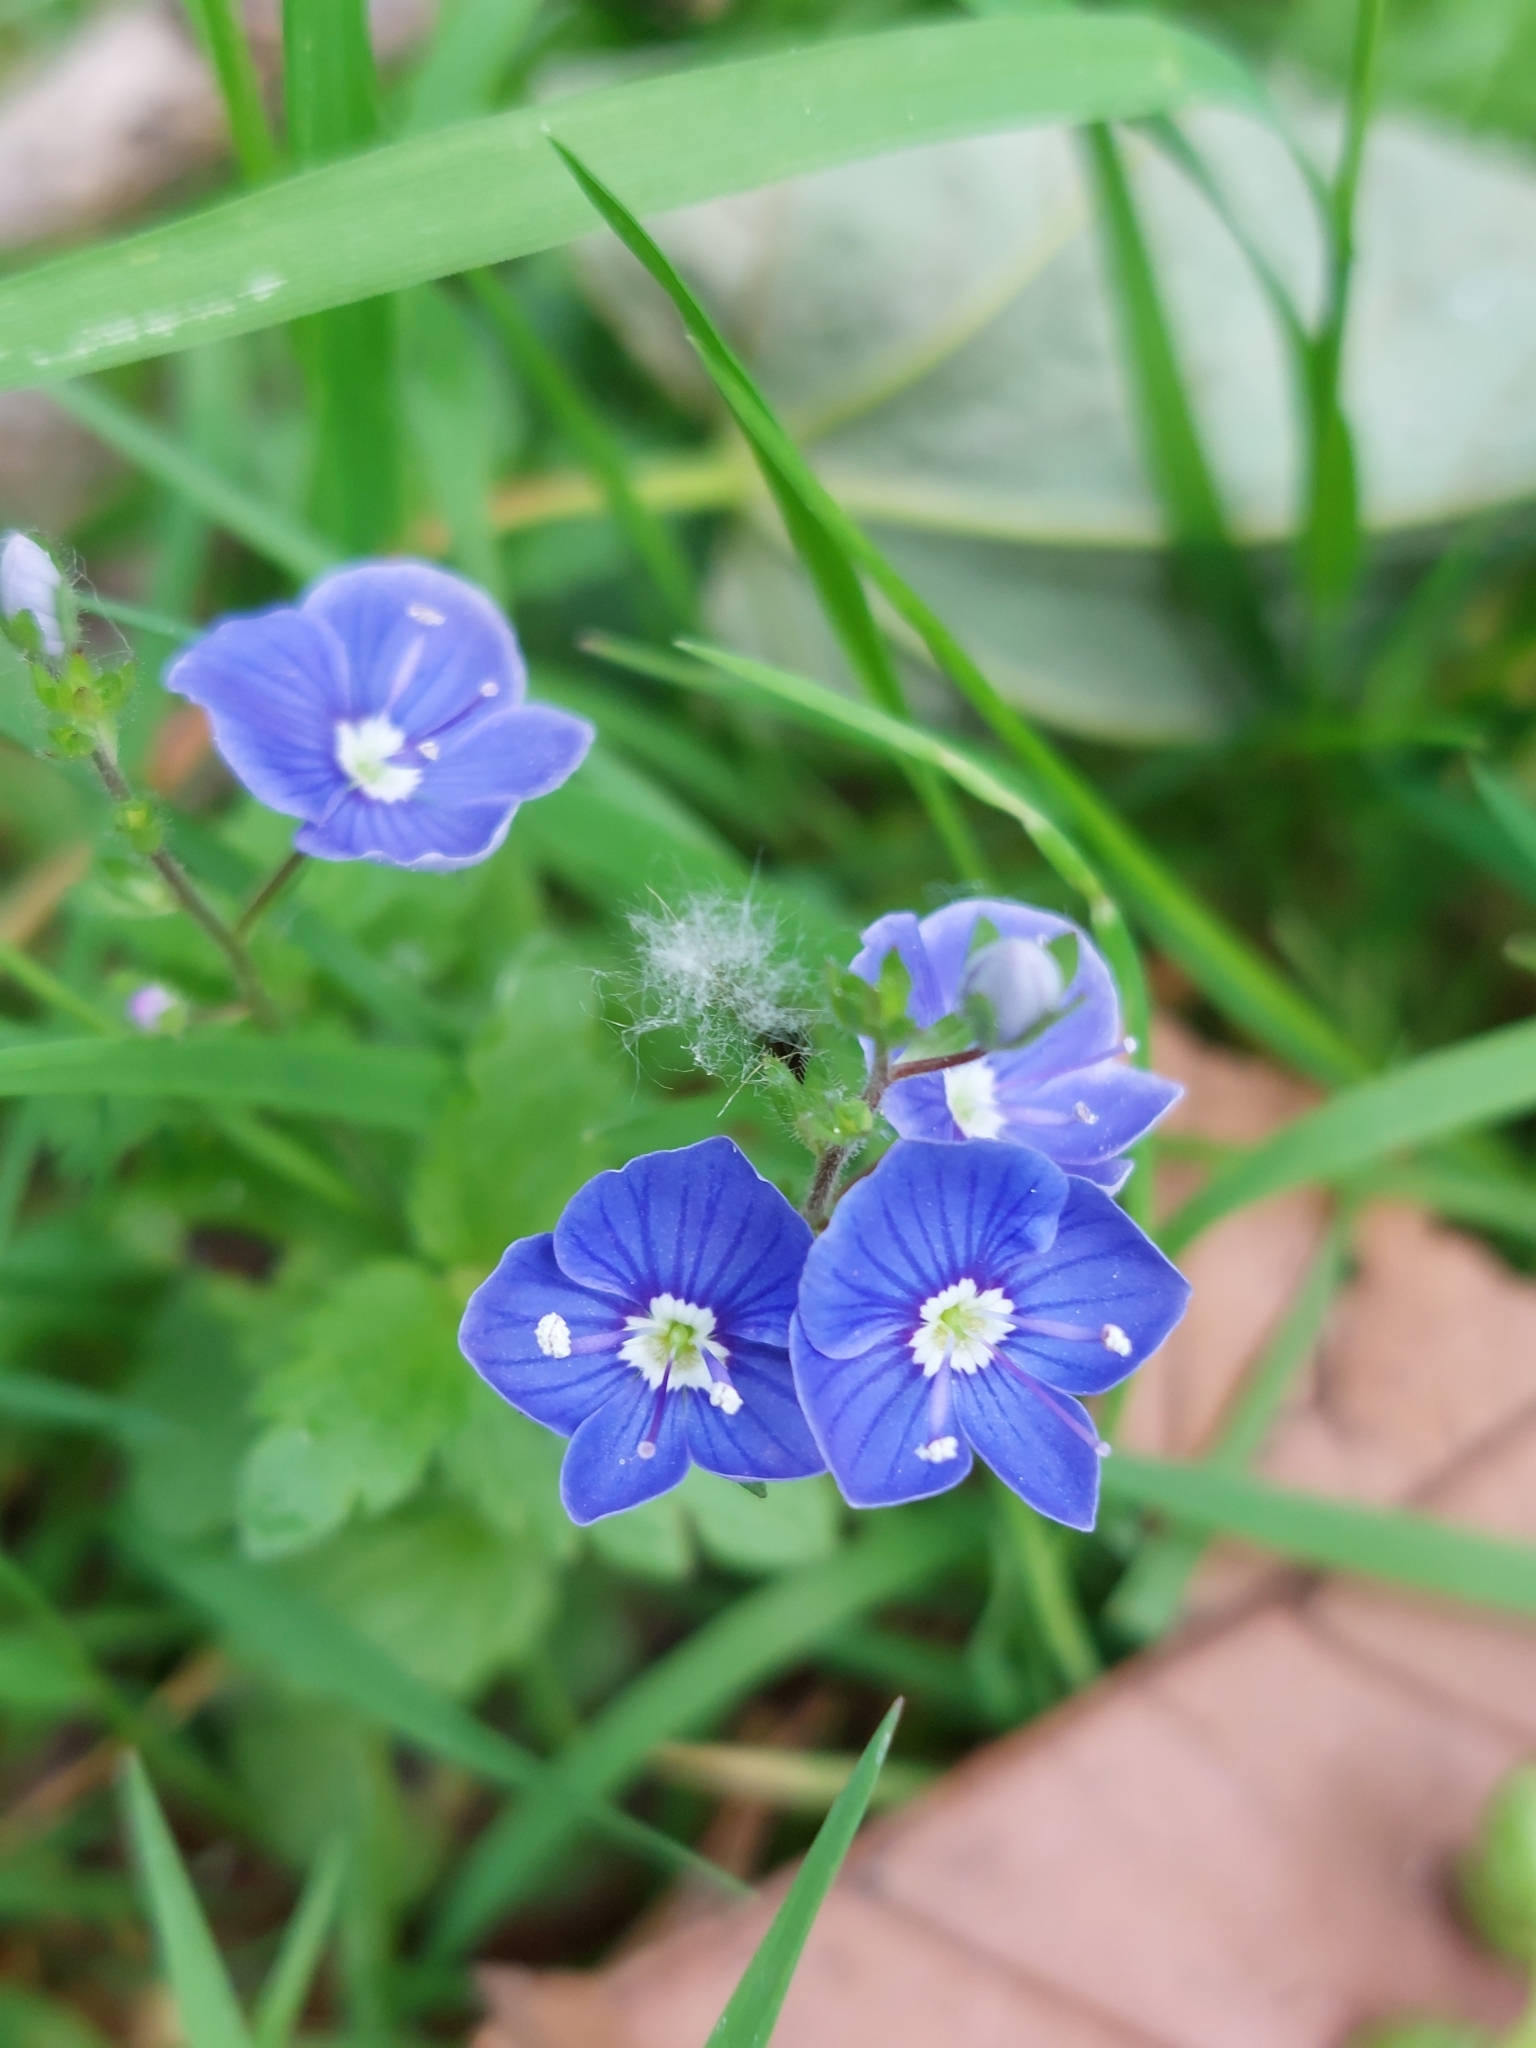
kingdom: Plantae
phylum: Tracheophyta
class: Magnoliopsida
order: Lamiales
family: Plantaginaceae
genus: Veronica
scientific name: Veronica chamaedrys
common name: Germander speedwell
